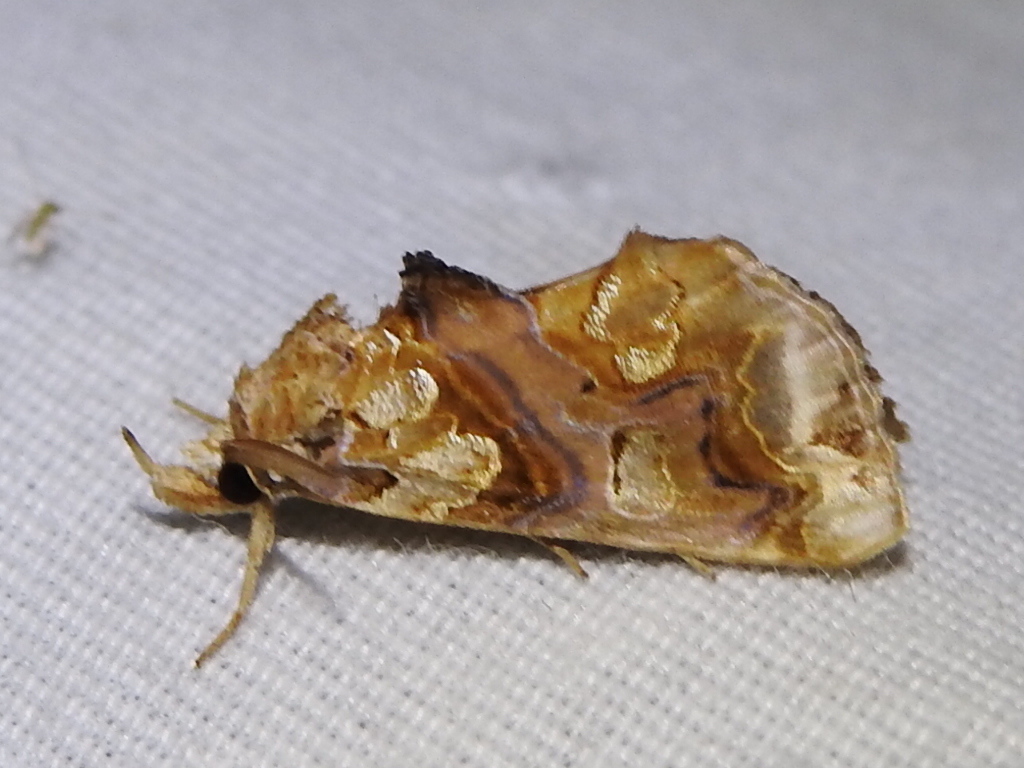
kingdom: Animalia
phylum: Arthropoda
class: Insecta
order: Lepidoptera
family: Erebidae
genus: Plusiodonta
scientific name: Plusiodonta compressipalpis
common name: Moonseed moth
